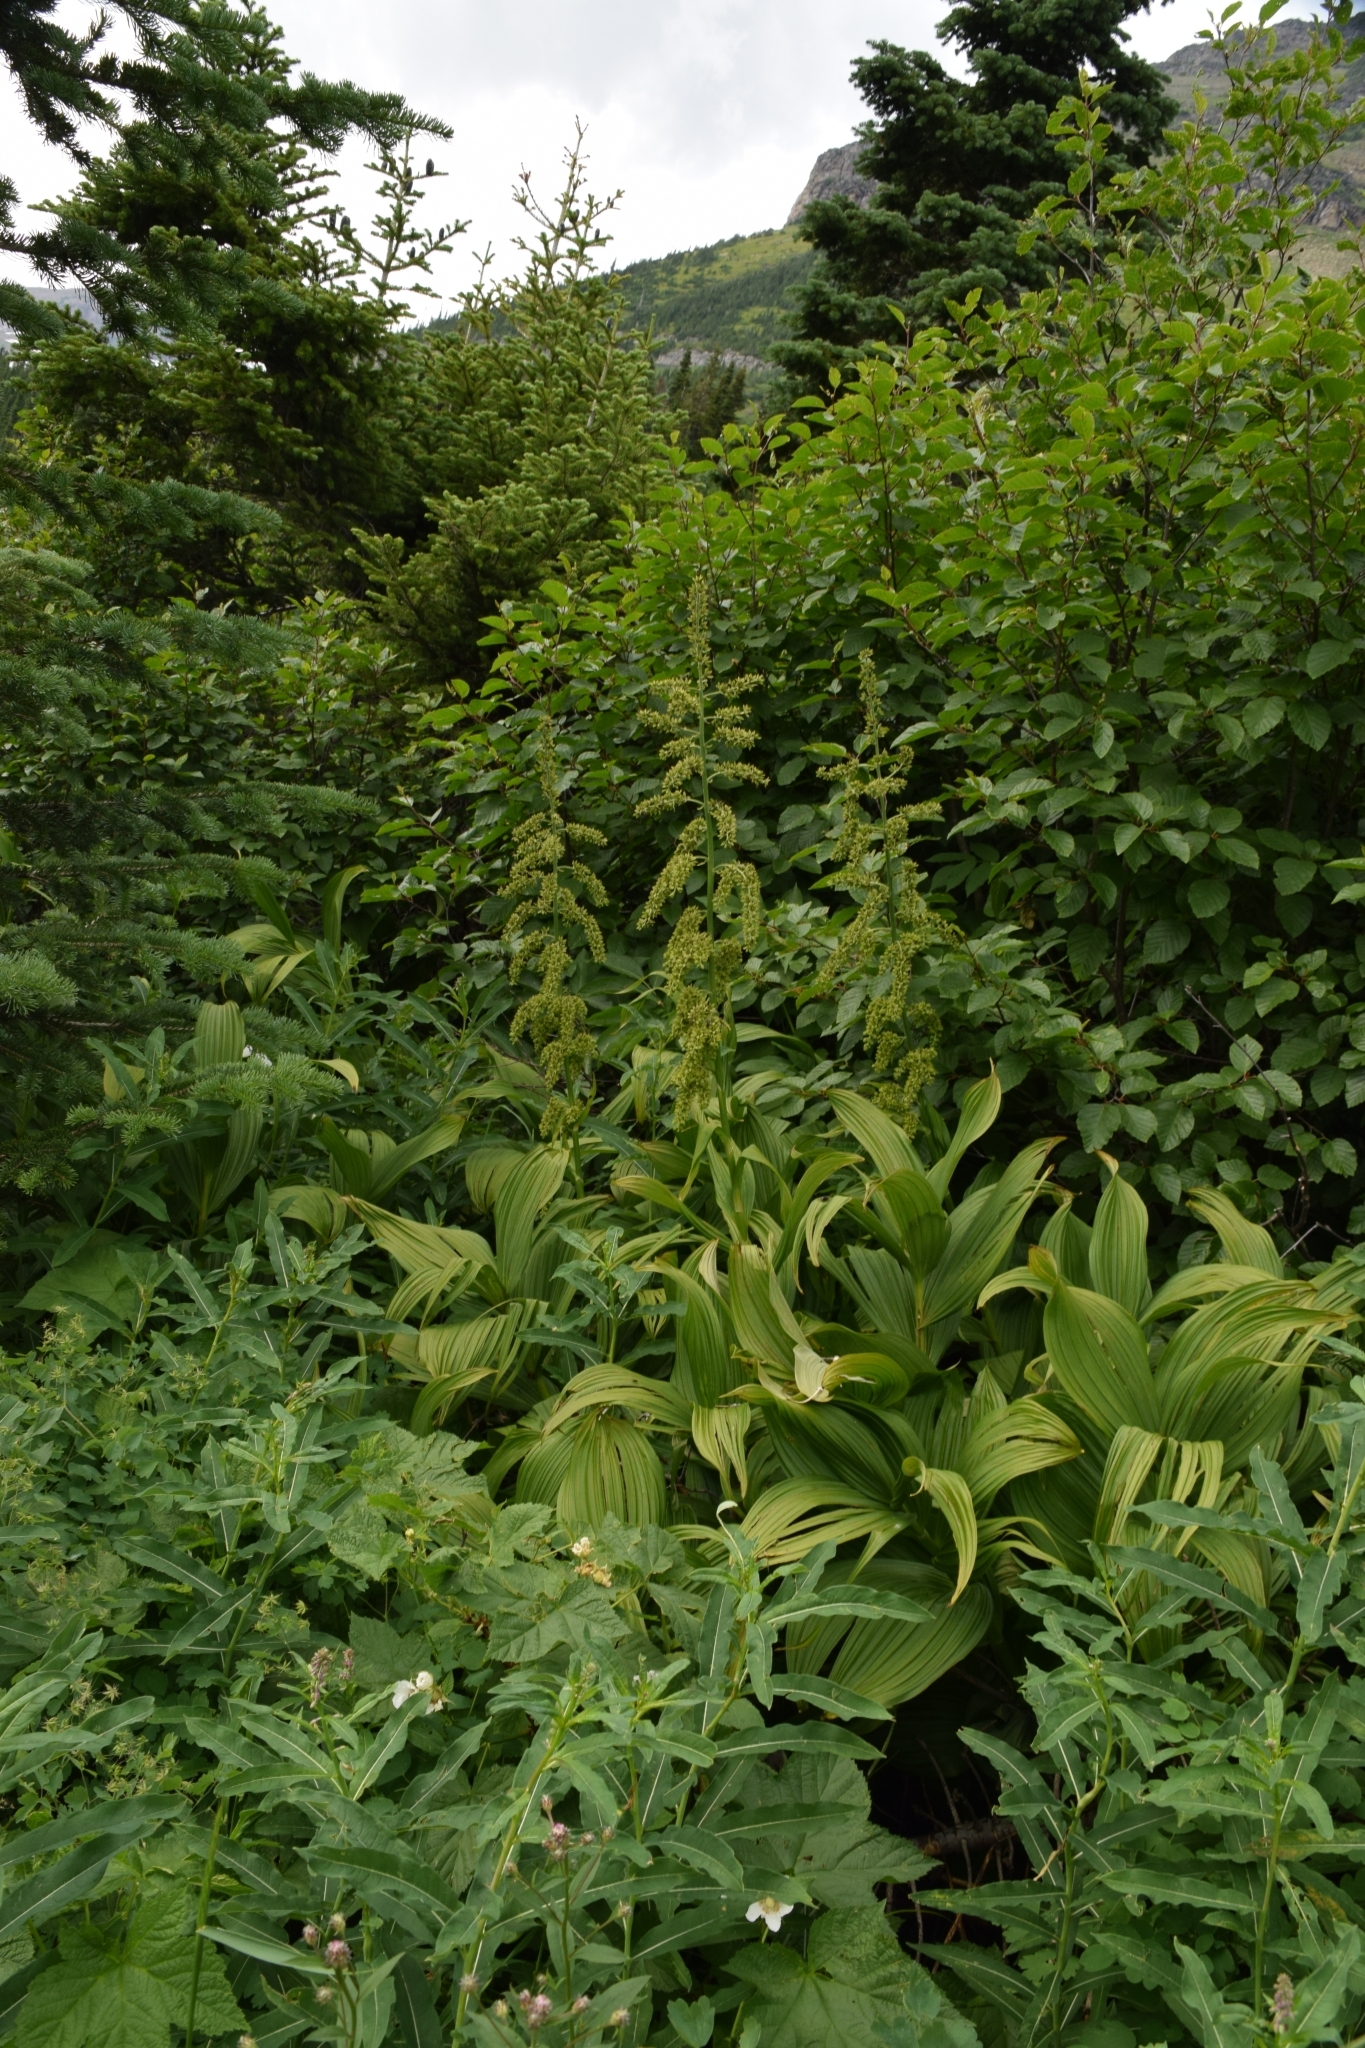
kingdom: Plantae
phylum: Tracheophyta
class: Liliopsida
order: Liliales
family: Melanthiaceae
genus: Veratrum
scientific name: Veratrum viride
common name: American false hellebore
